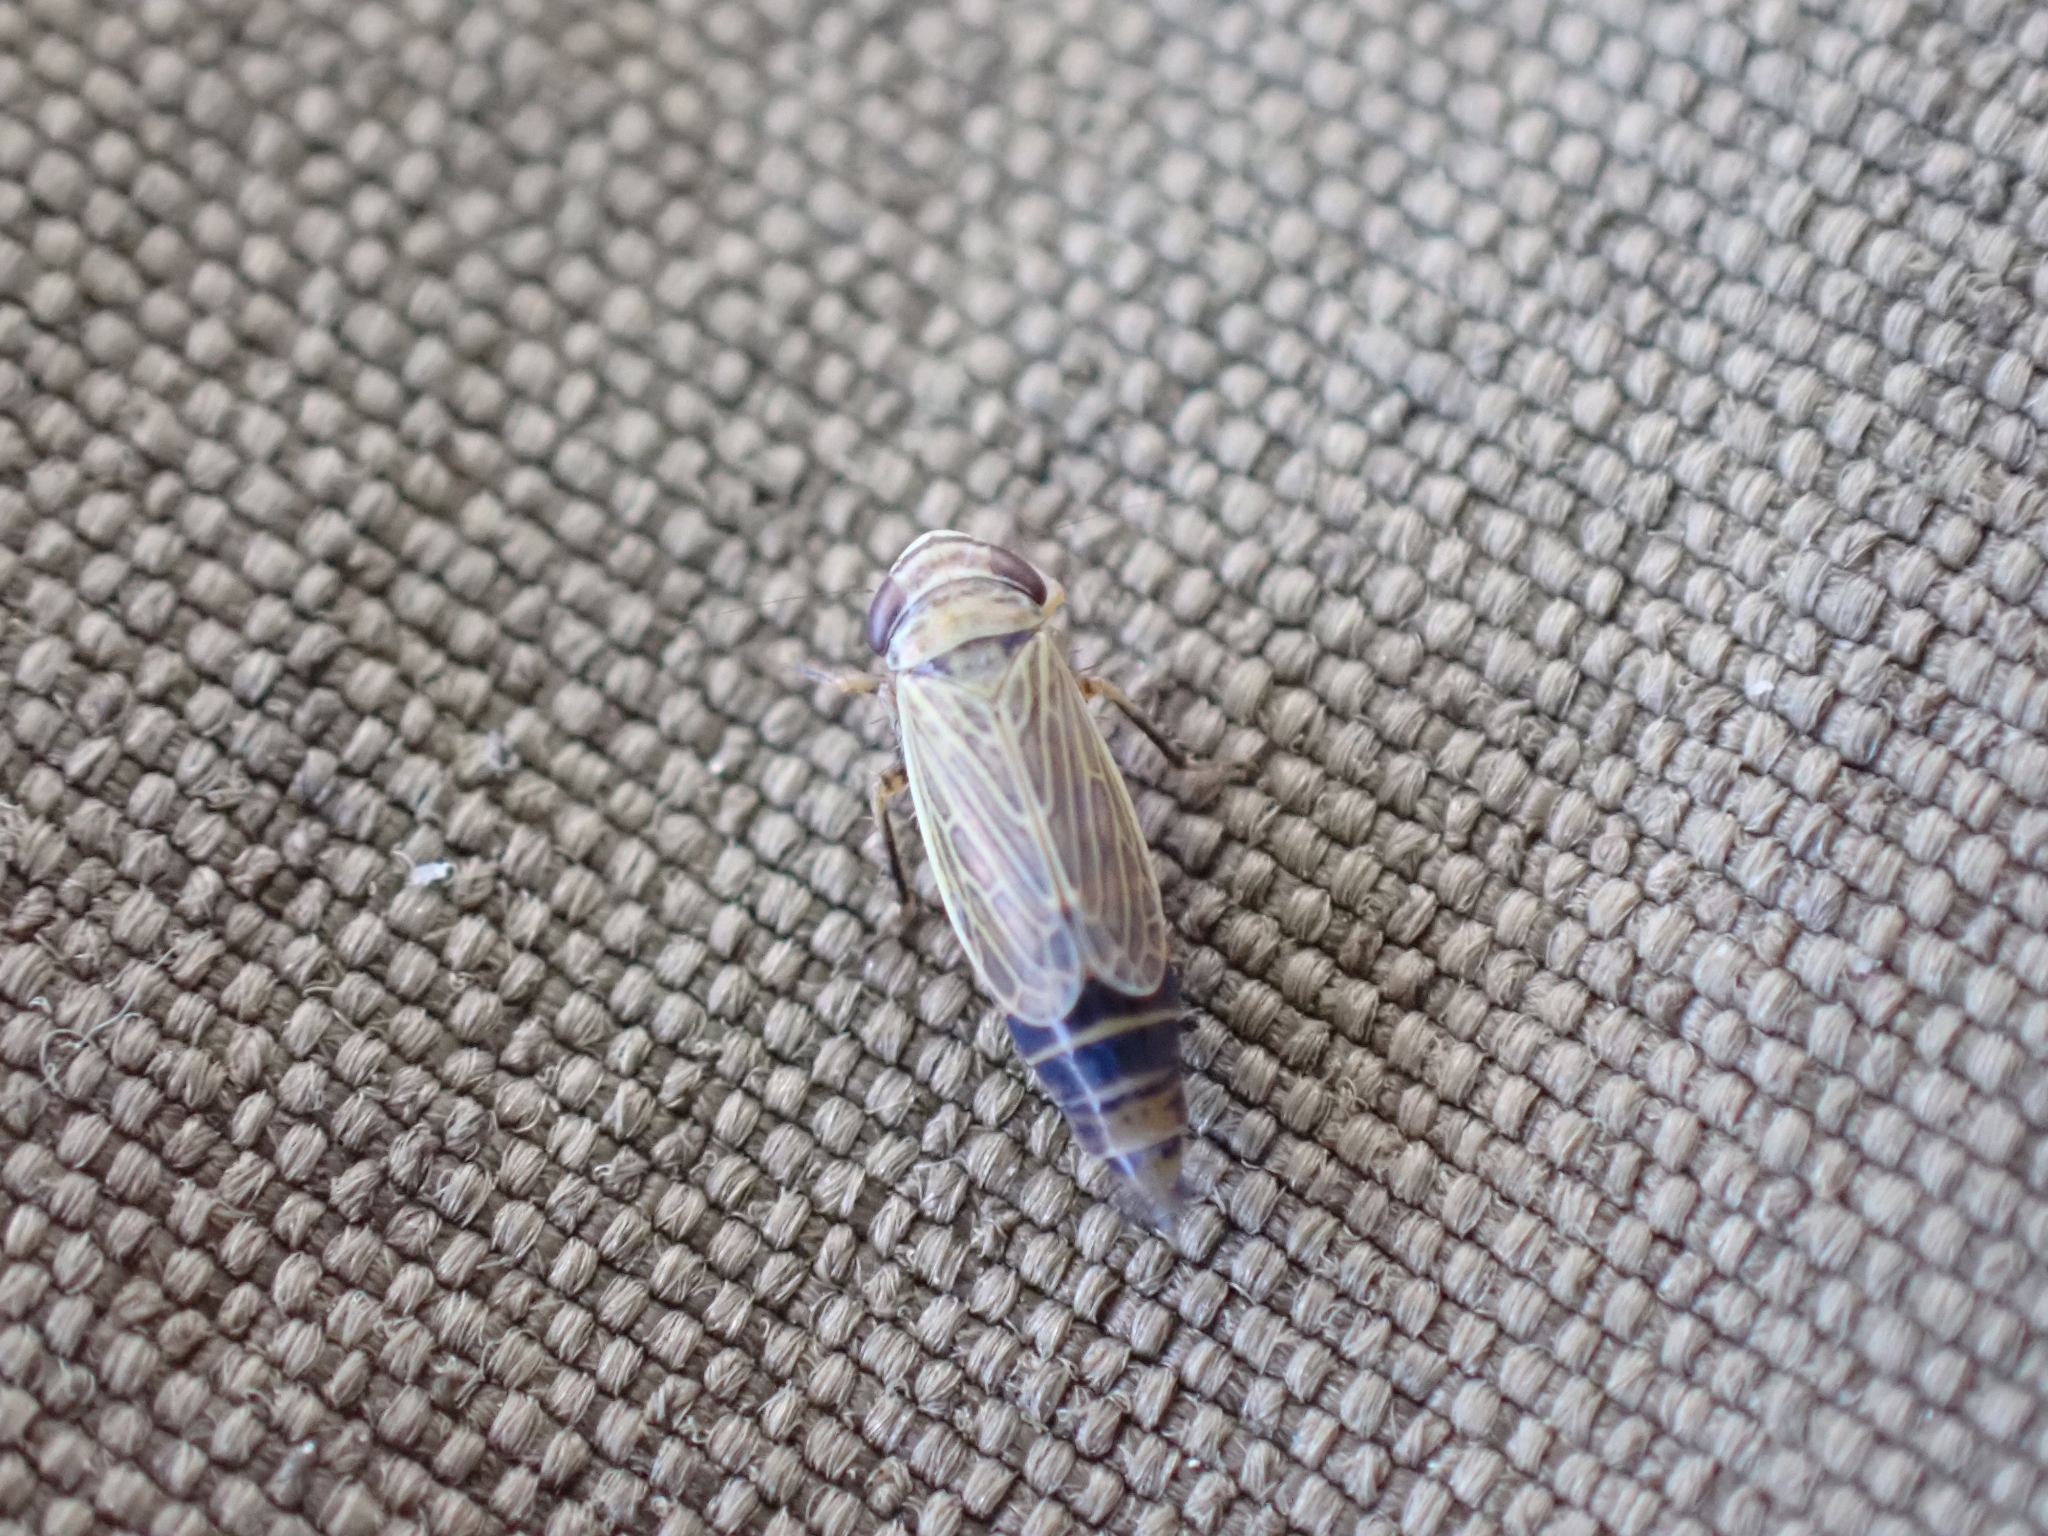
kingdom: Animalia
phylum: Arthropoda
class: Insecta
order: Hemiptera
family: Cicadellidae
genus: Pasaremus
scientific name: Pasaremus concentricus
